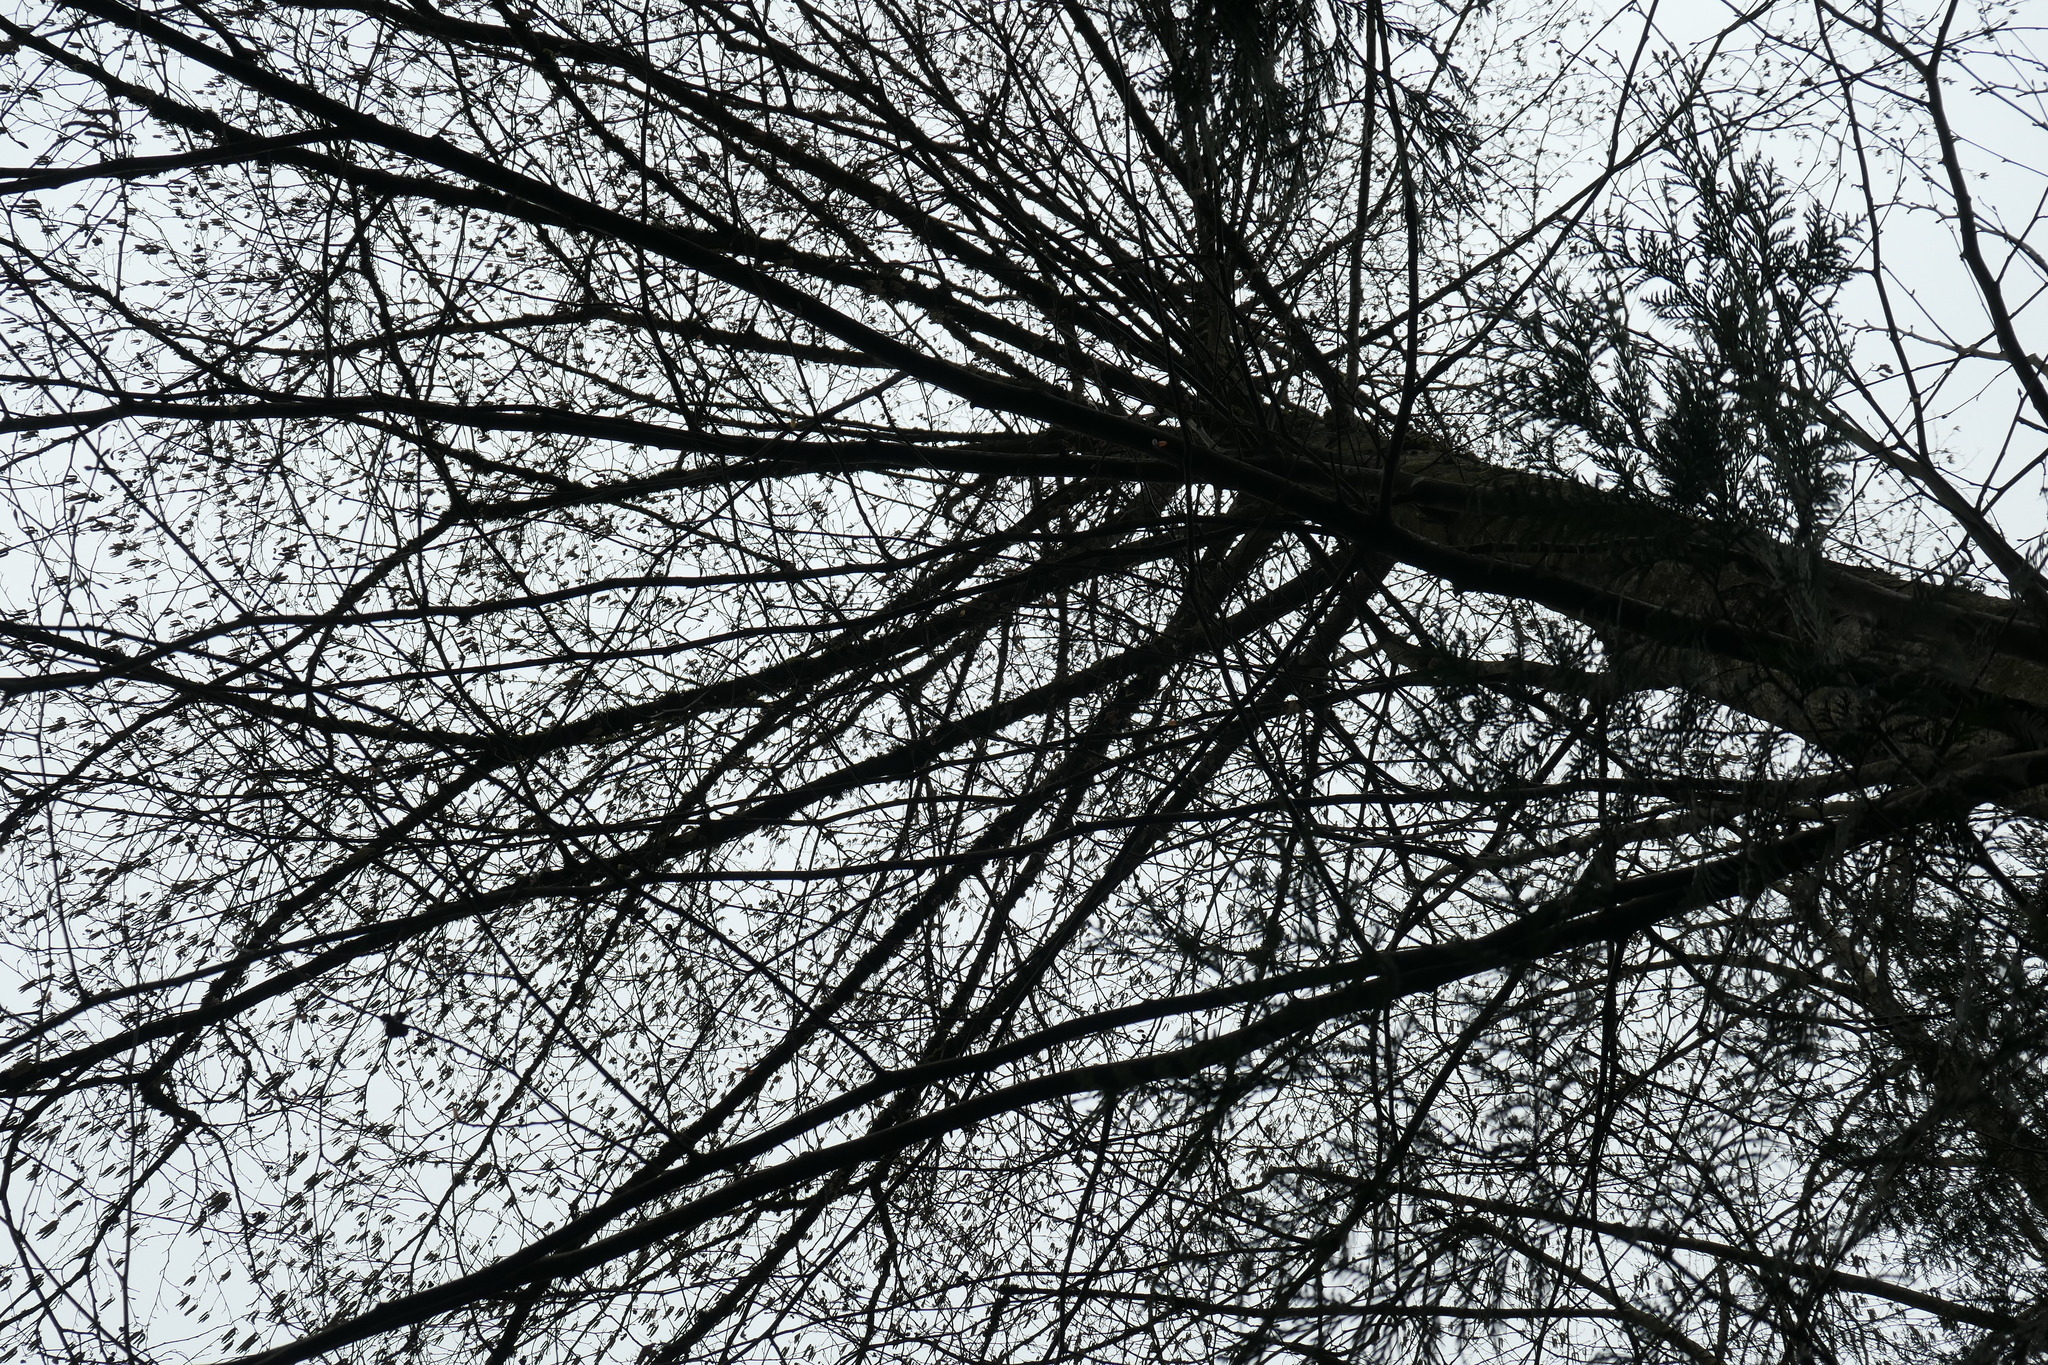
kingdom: Plantae
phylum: Tracheophyta
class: Magnoliopsida
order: Fagales
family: Betulaceae
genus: Alnus
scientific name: Alnus rubra
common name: Red alder
